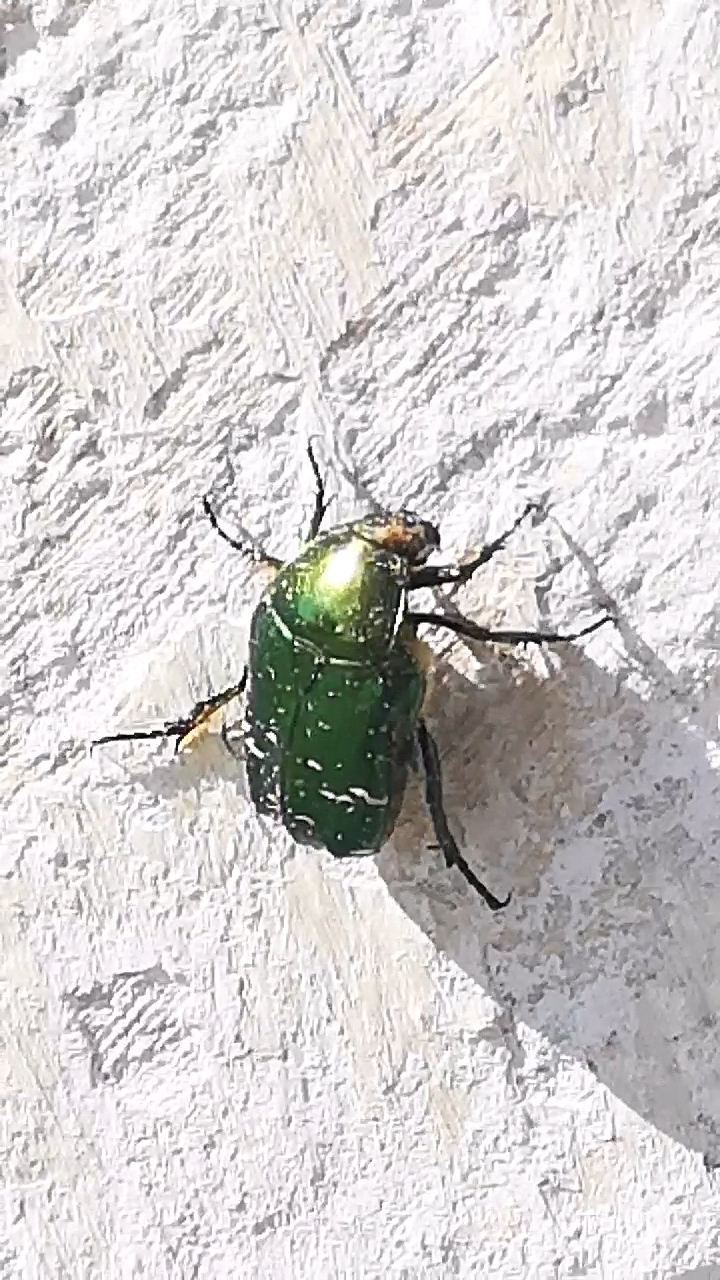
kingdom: Animalia
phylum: Arthropoda
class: Insecta
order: Coleoptera
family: Scarabaeidae
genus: Cetonia
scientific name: Cetonia aurata
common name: Rose chafer
